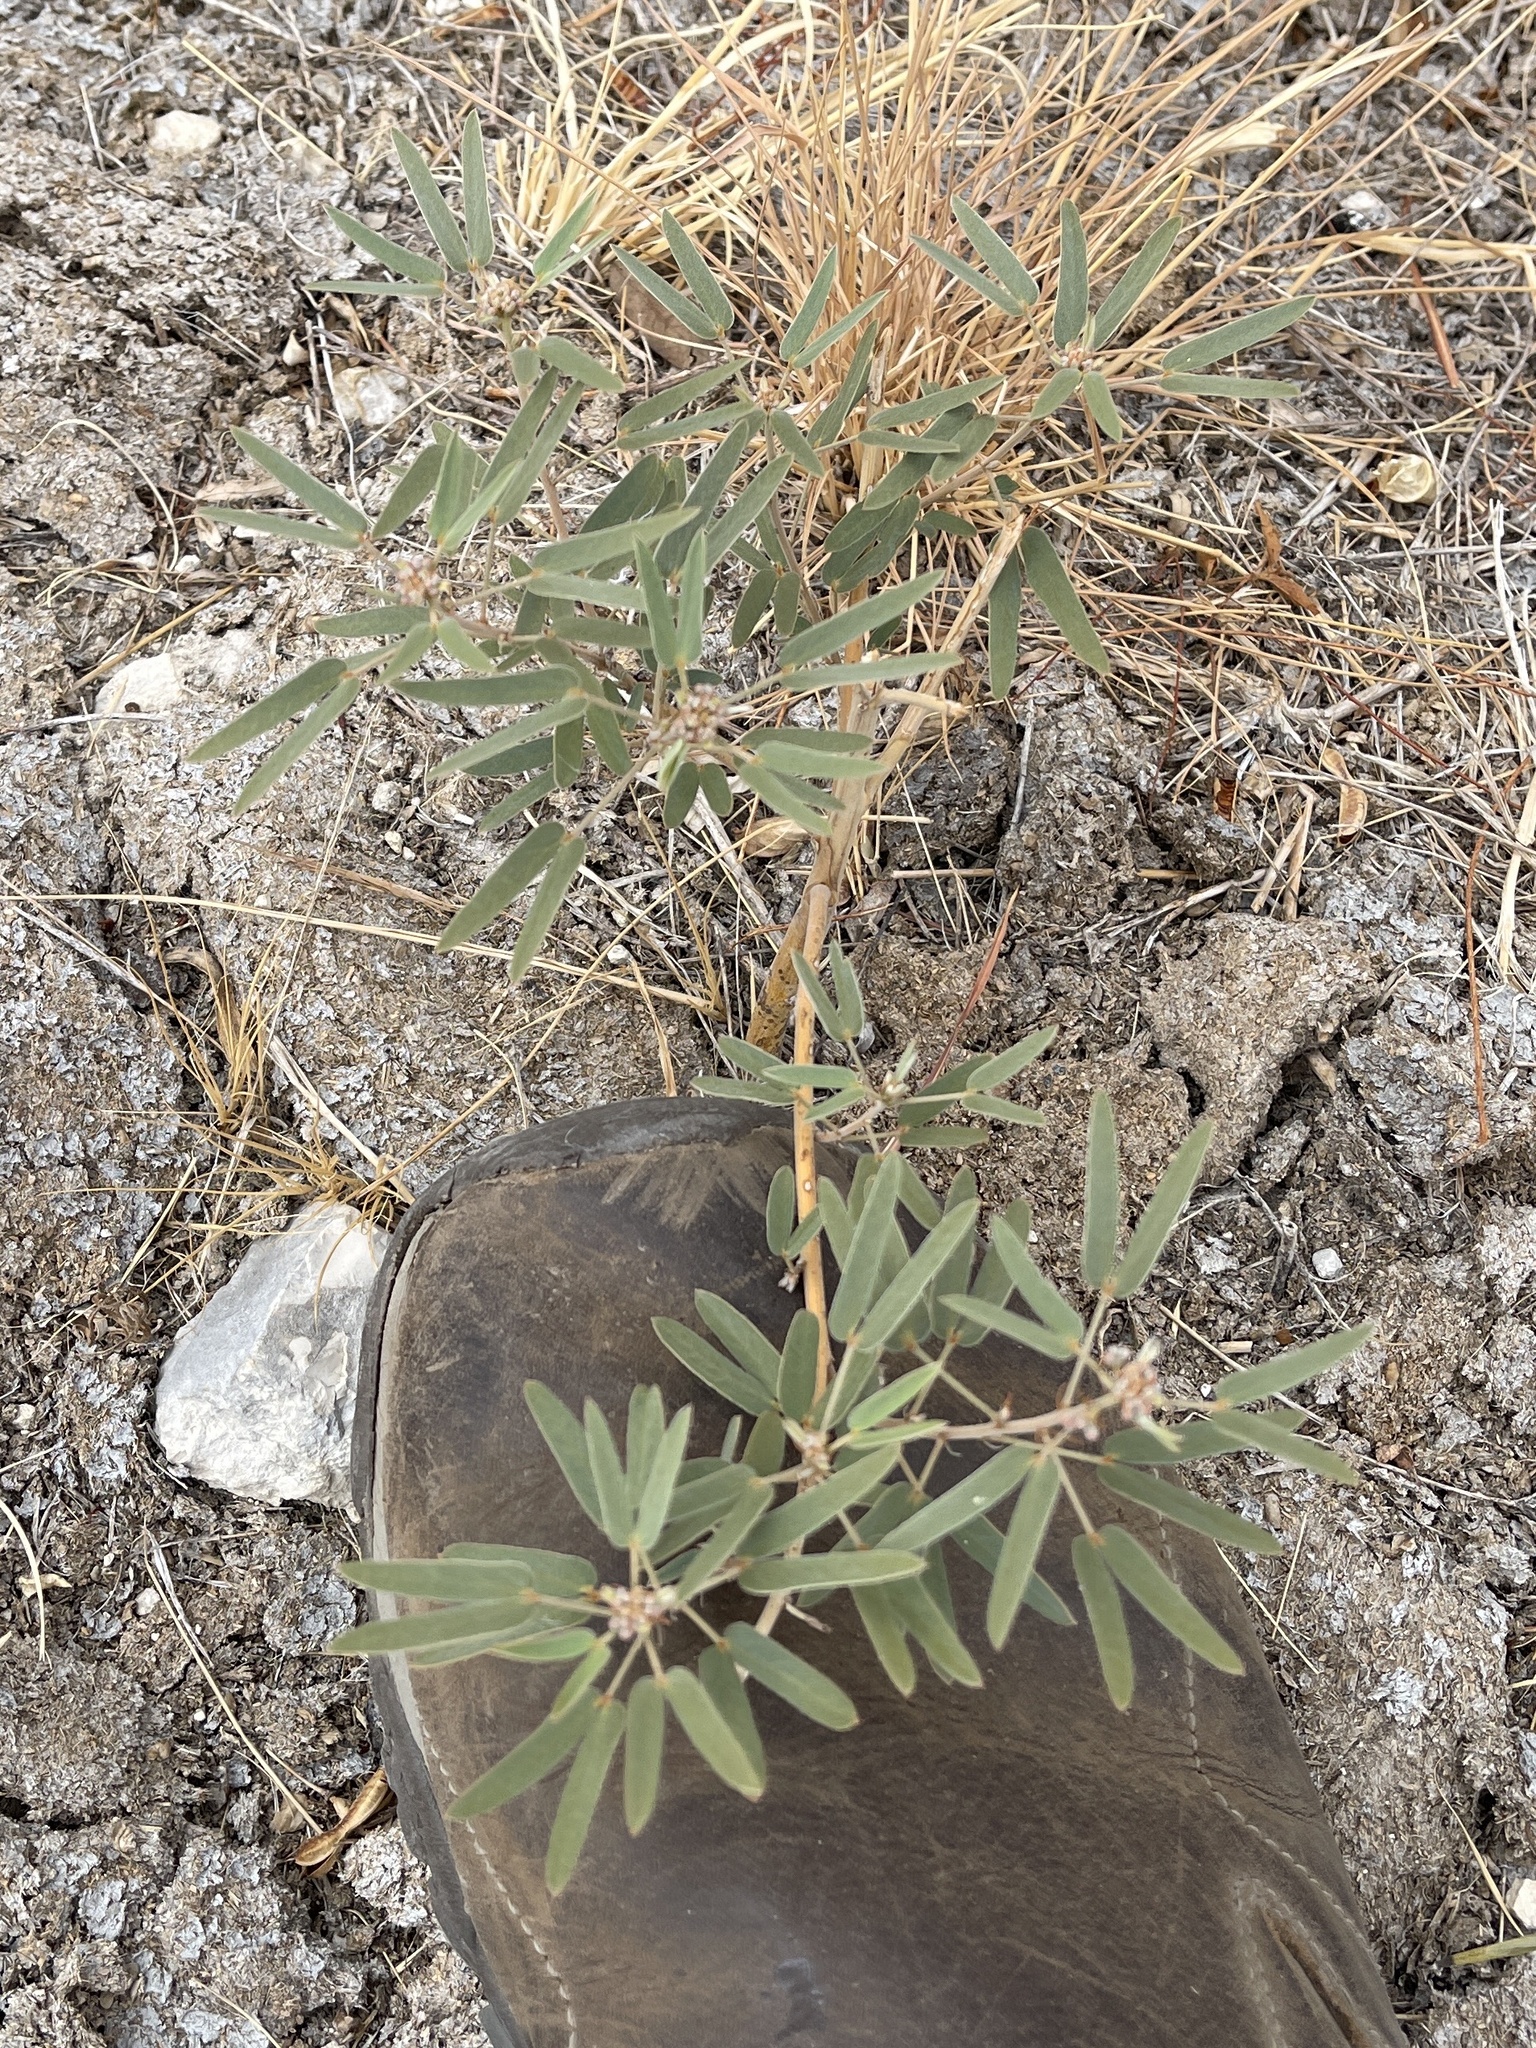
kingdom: Plantae
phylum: Tracheophyta
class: Magnoliopsida
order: Fabales
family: Fabaceae
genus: Senna
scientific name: Senna roemeriana
